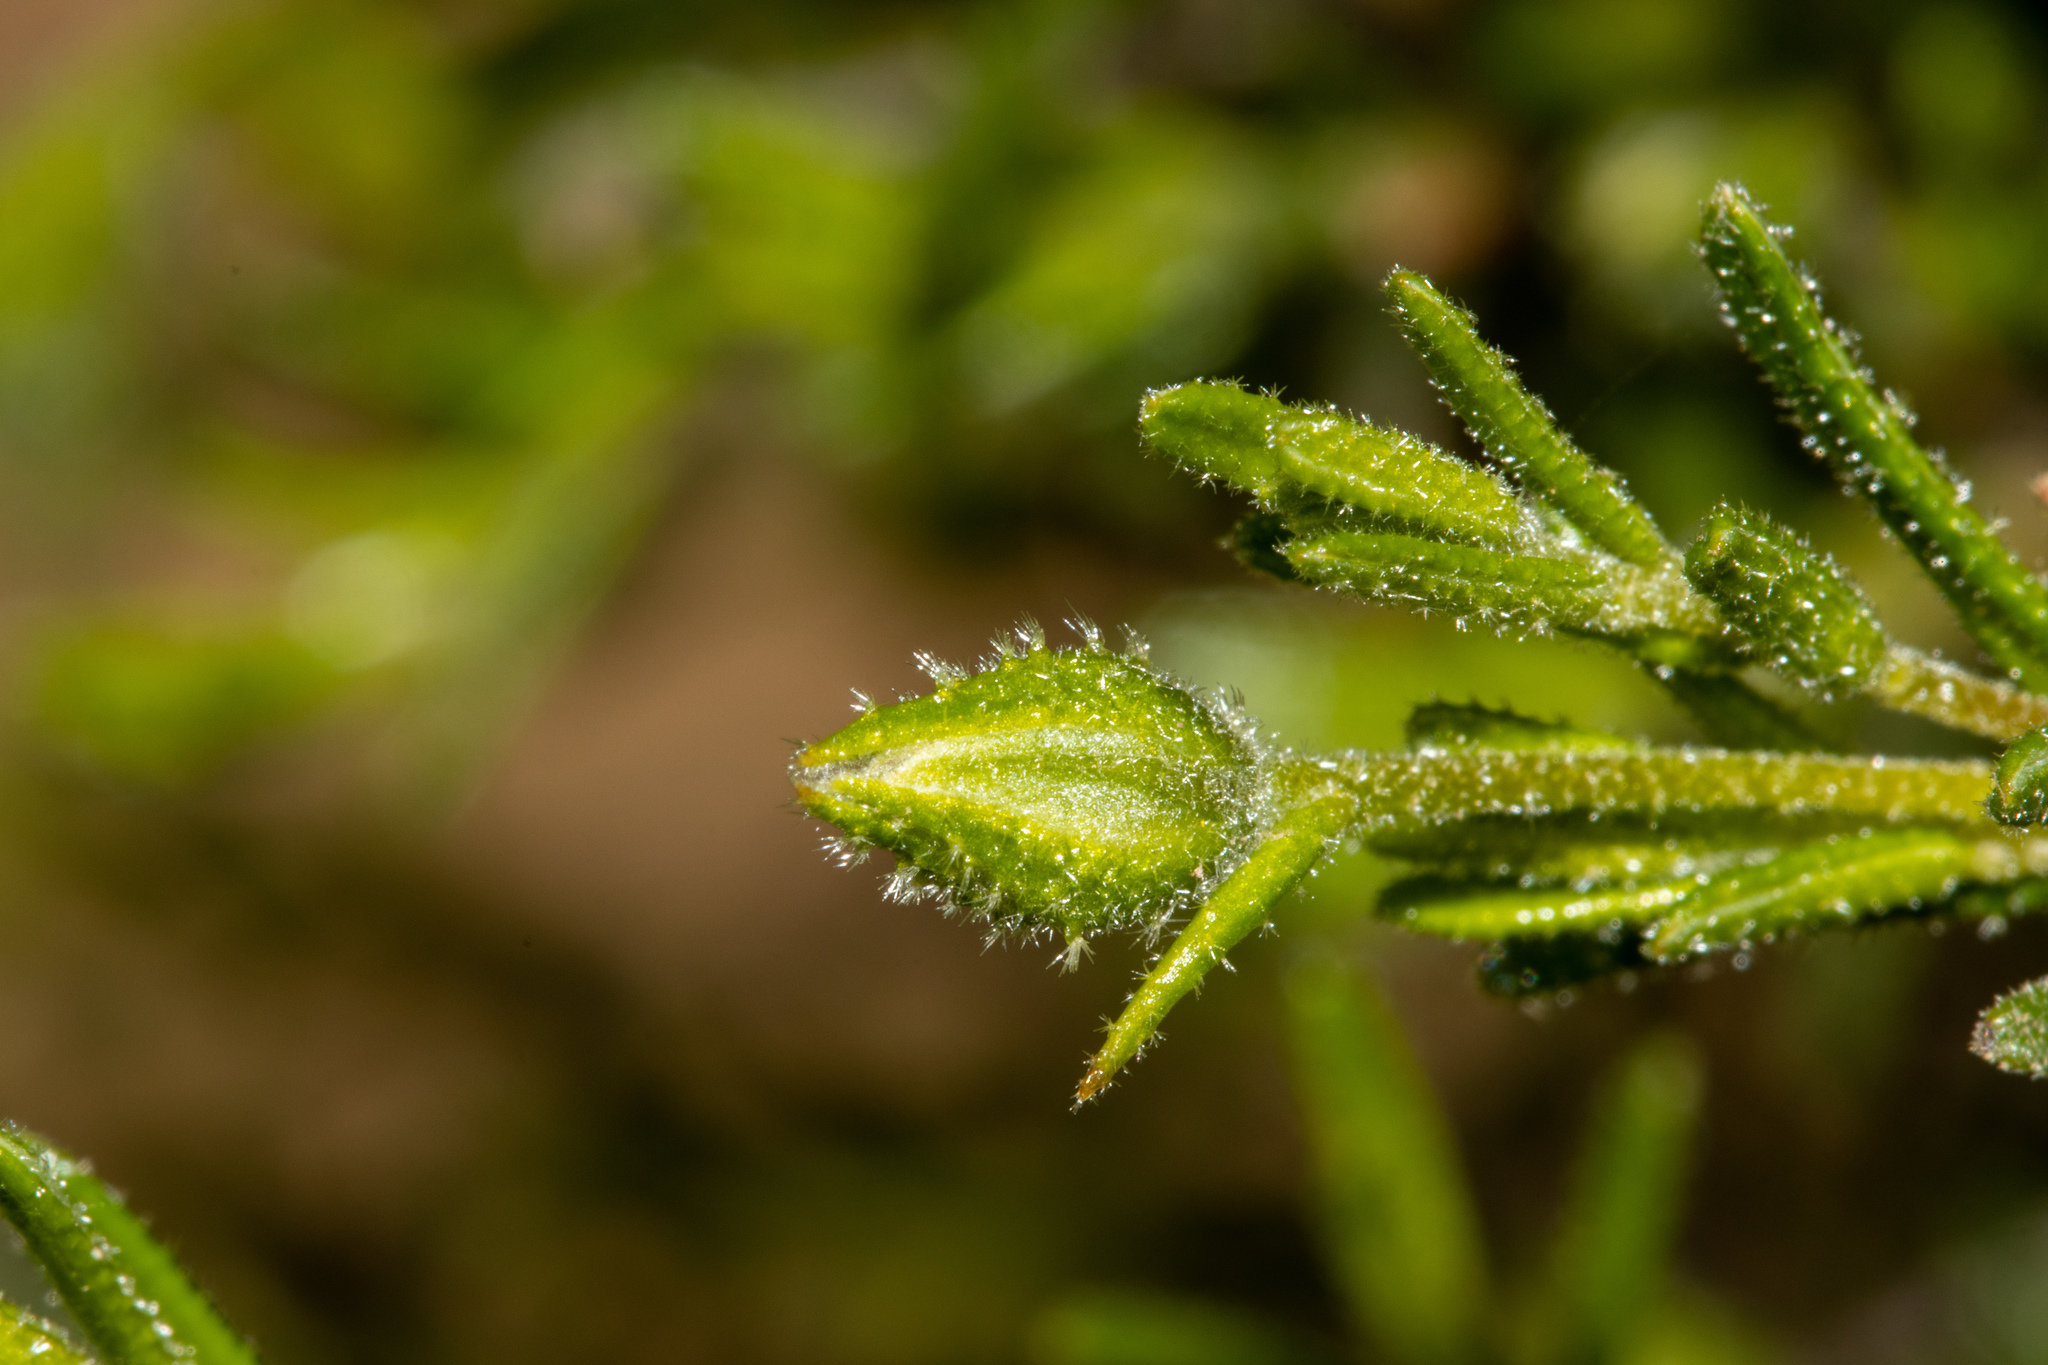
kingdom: Plantae
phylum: Tracheophyta
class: Magnoliopsida
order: Dilleniales
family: Dilleniaceae
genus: Hibbertia
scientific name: Hibbertia glebosa
